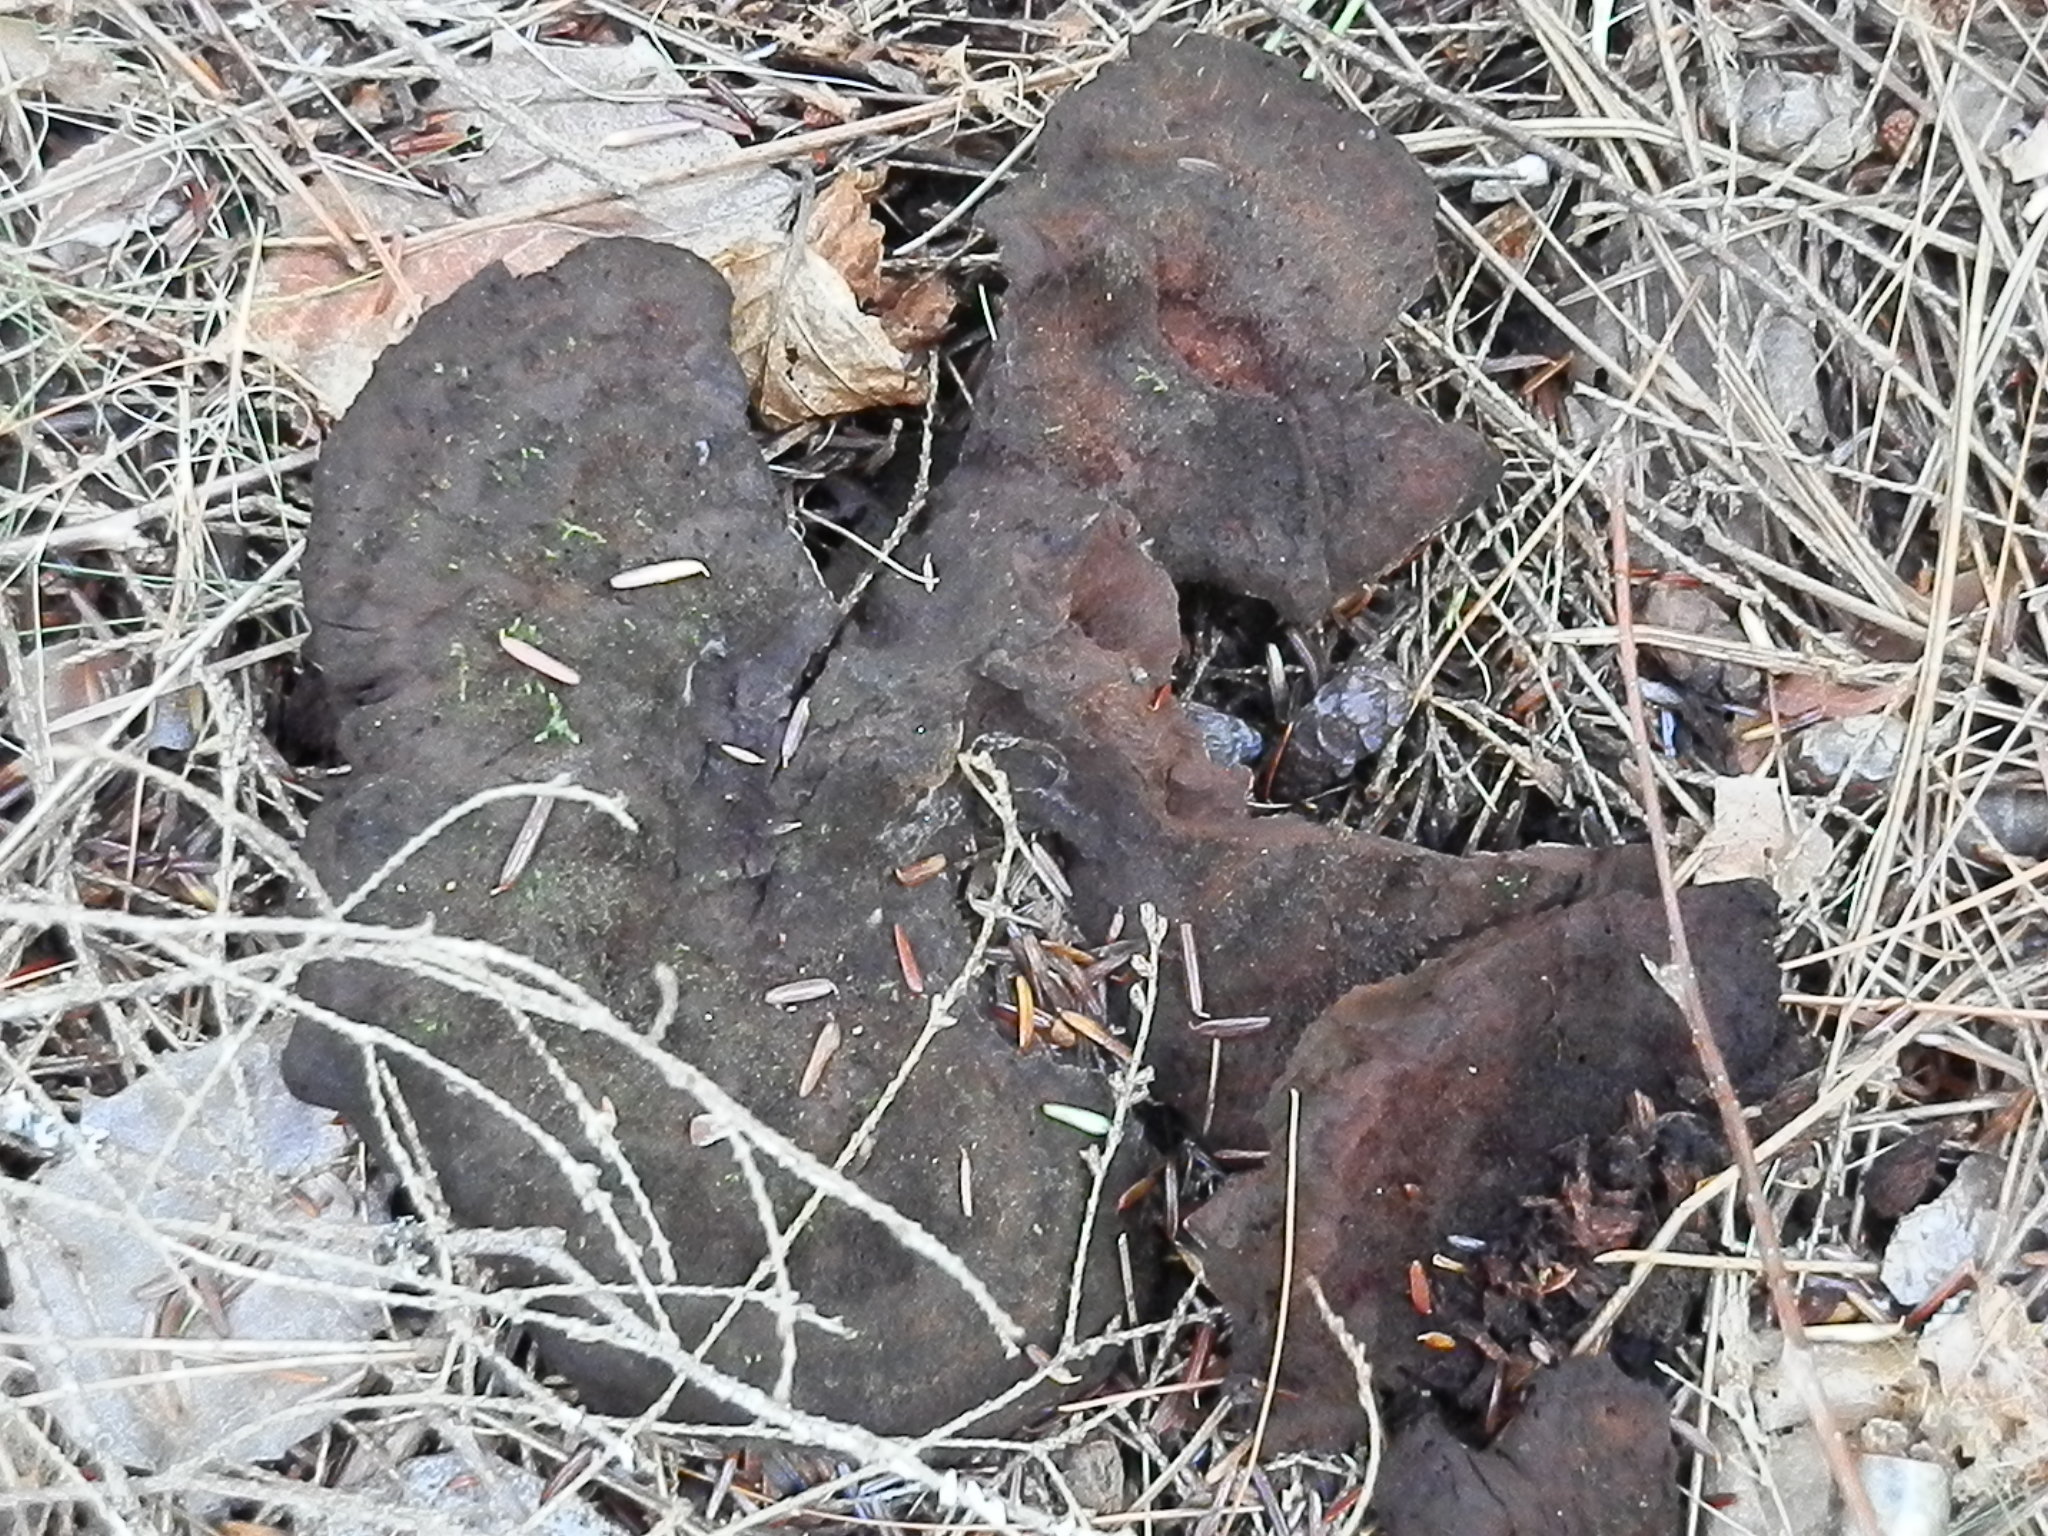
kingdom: Fungi
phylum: Basidiomycota
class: Agaricomycetes
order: Polyporales
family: Laetiporaceae
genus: Phaeolus
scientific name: Phaeolus schweinitzii
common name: Dyer's mazegill
